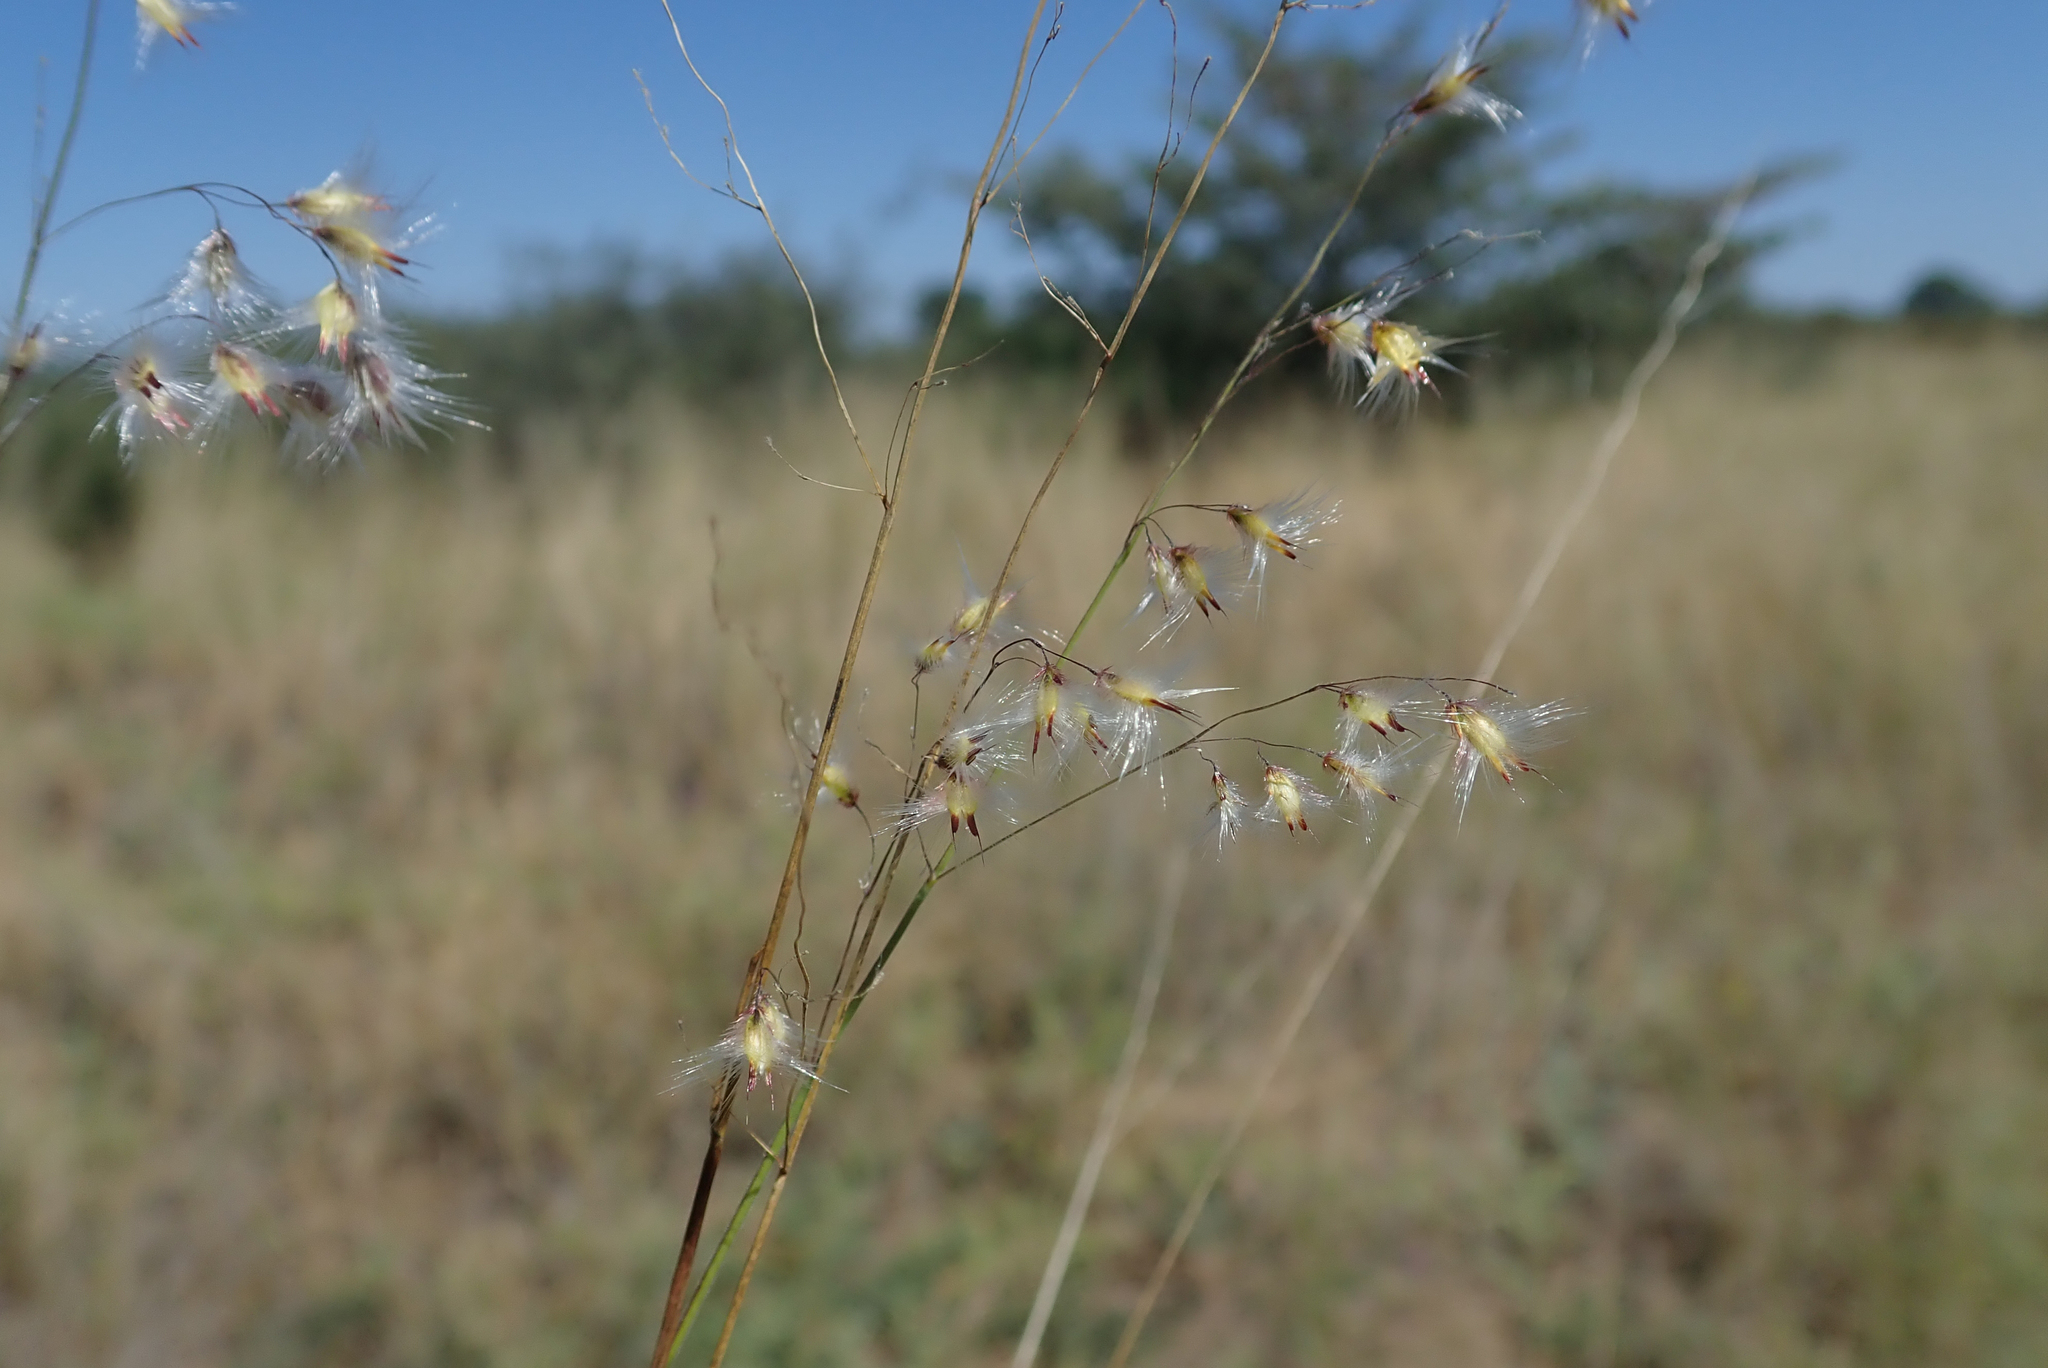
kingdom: Plantae
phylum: Tracheophyta
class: Liliopsida
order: Poales
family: Poaceae
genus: Melinis
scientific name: Melinis repens
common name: Rose natal grass
